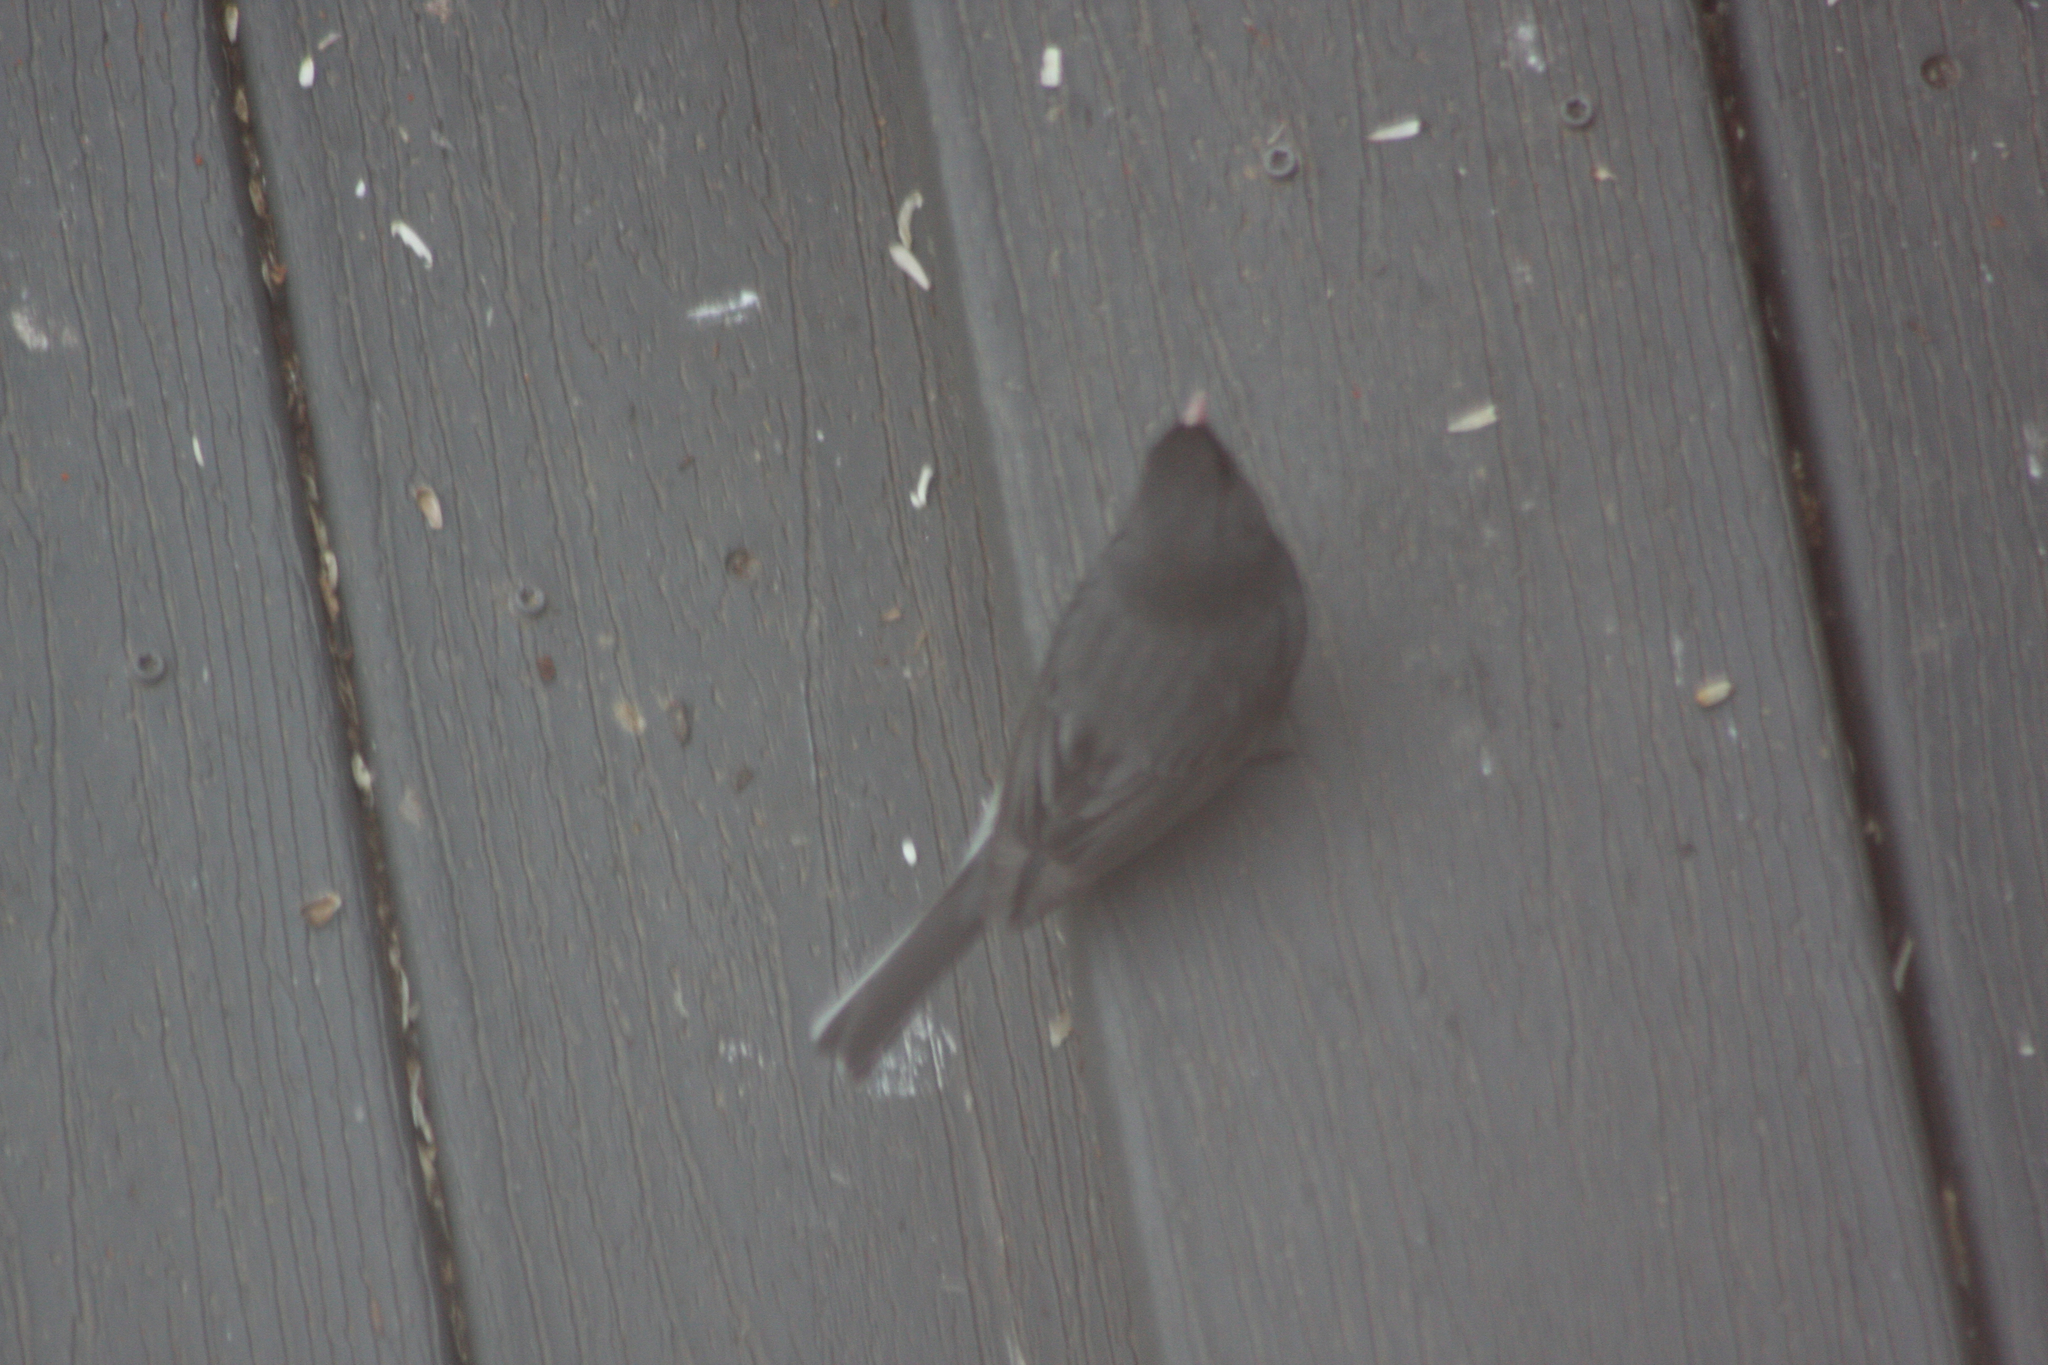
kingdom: Animalia
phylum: Chordata
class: Aves
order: Passeriformes
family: Passerellidae
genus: Junco
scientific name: Junco hyemalis
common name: Dark-eyed junco
